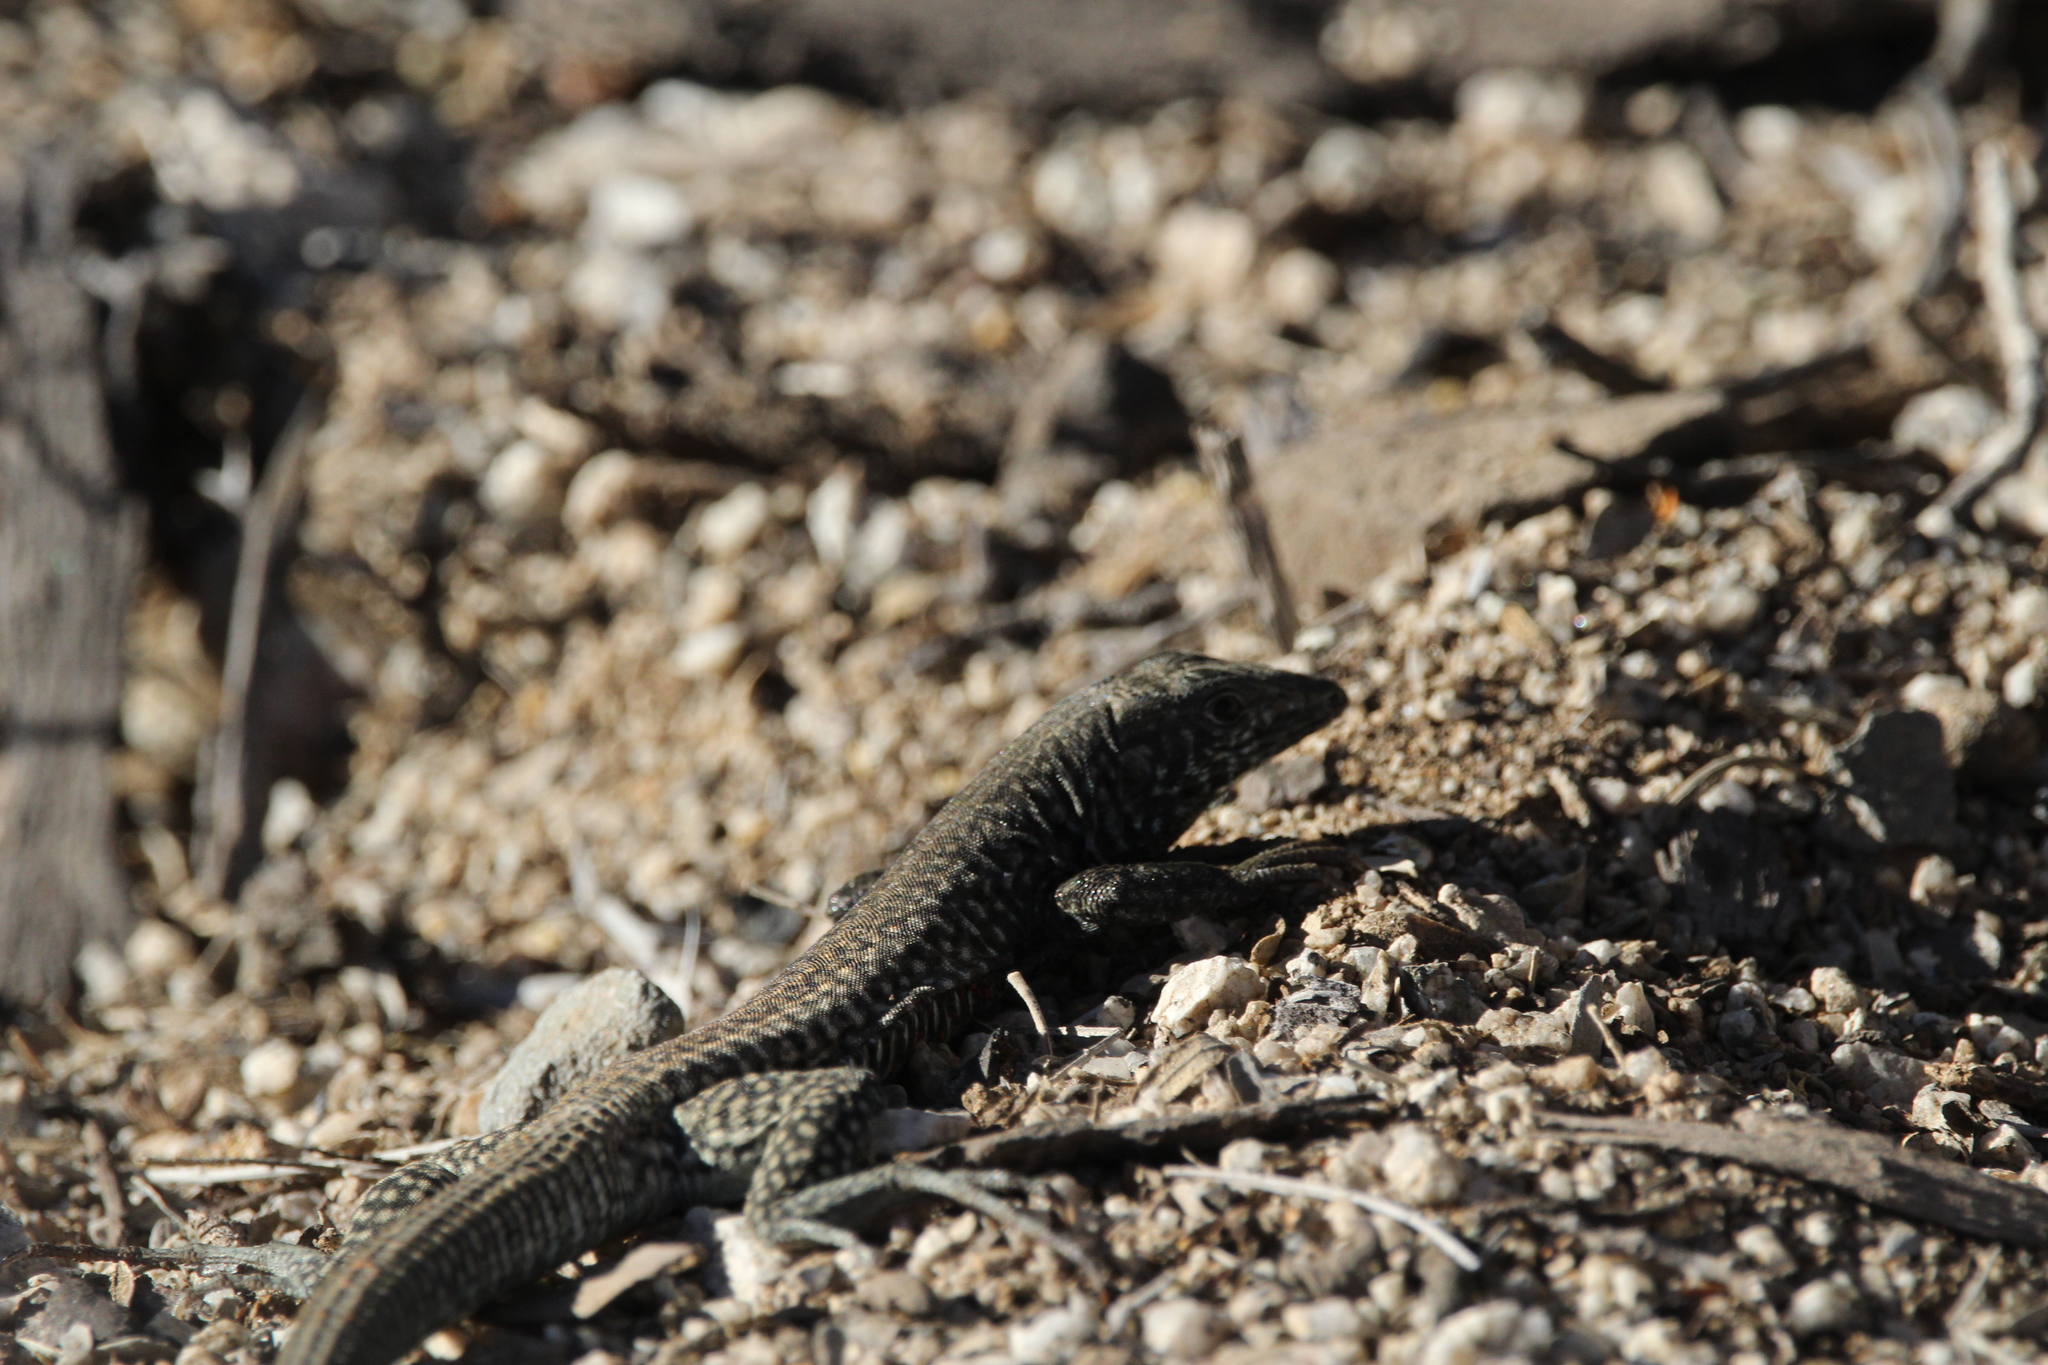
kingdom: Animalia
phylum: Chordata
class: Squamata
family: Teiidae
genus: Aspidoscelis
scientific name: Aspidoscelis tigris
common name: Tiger whiptail
